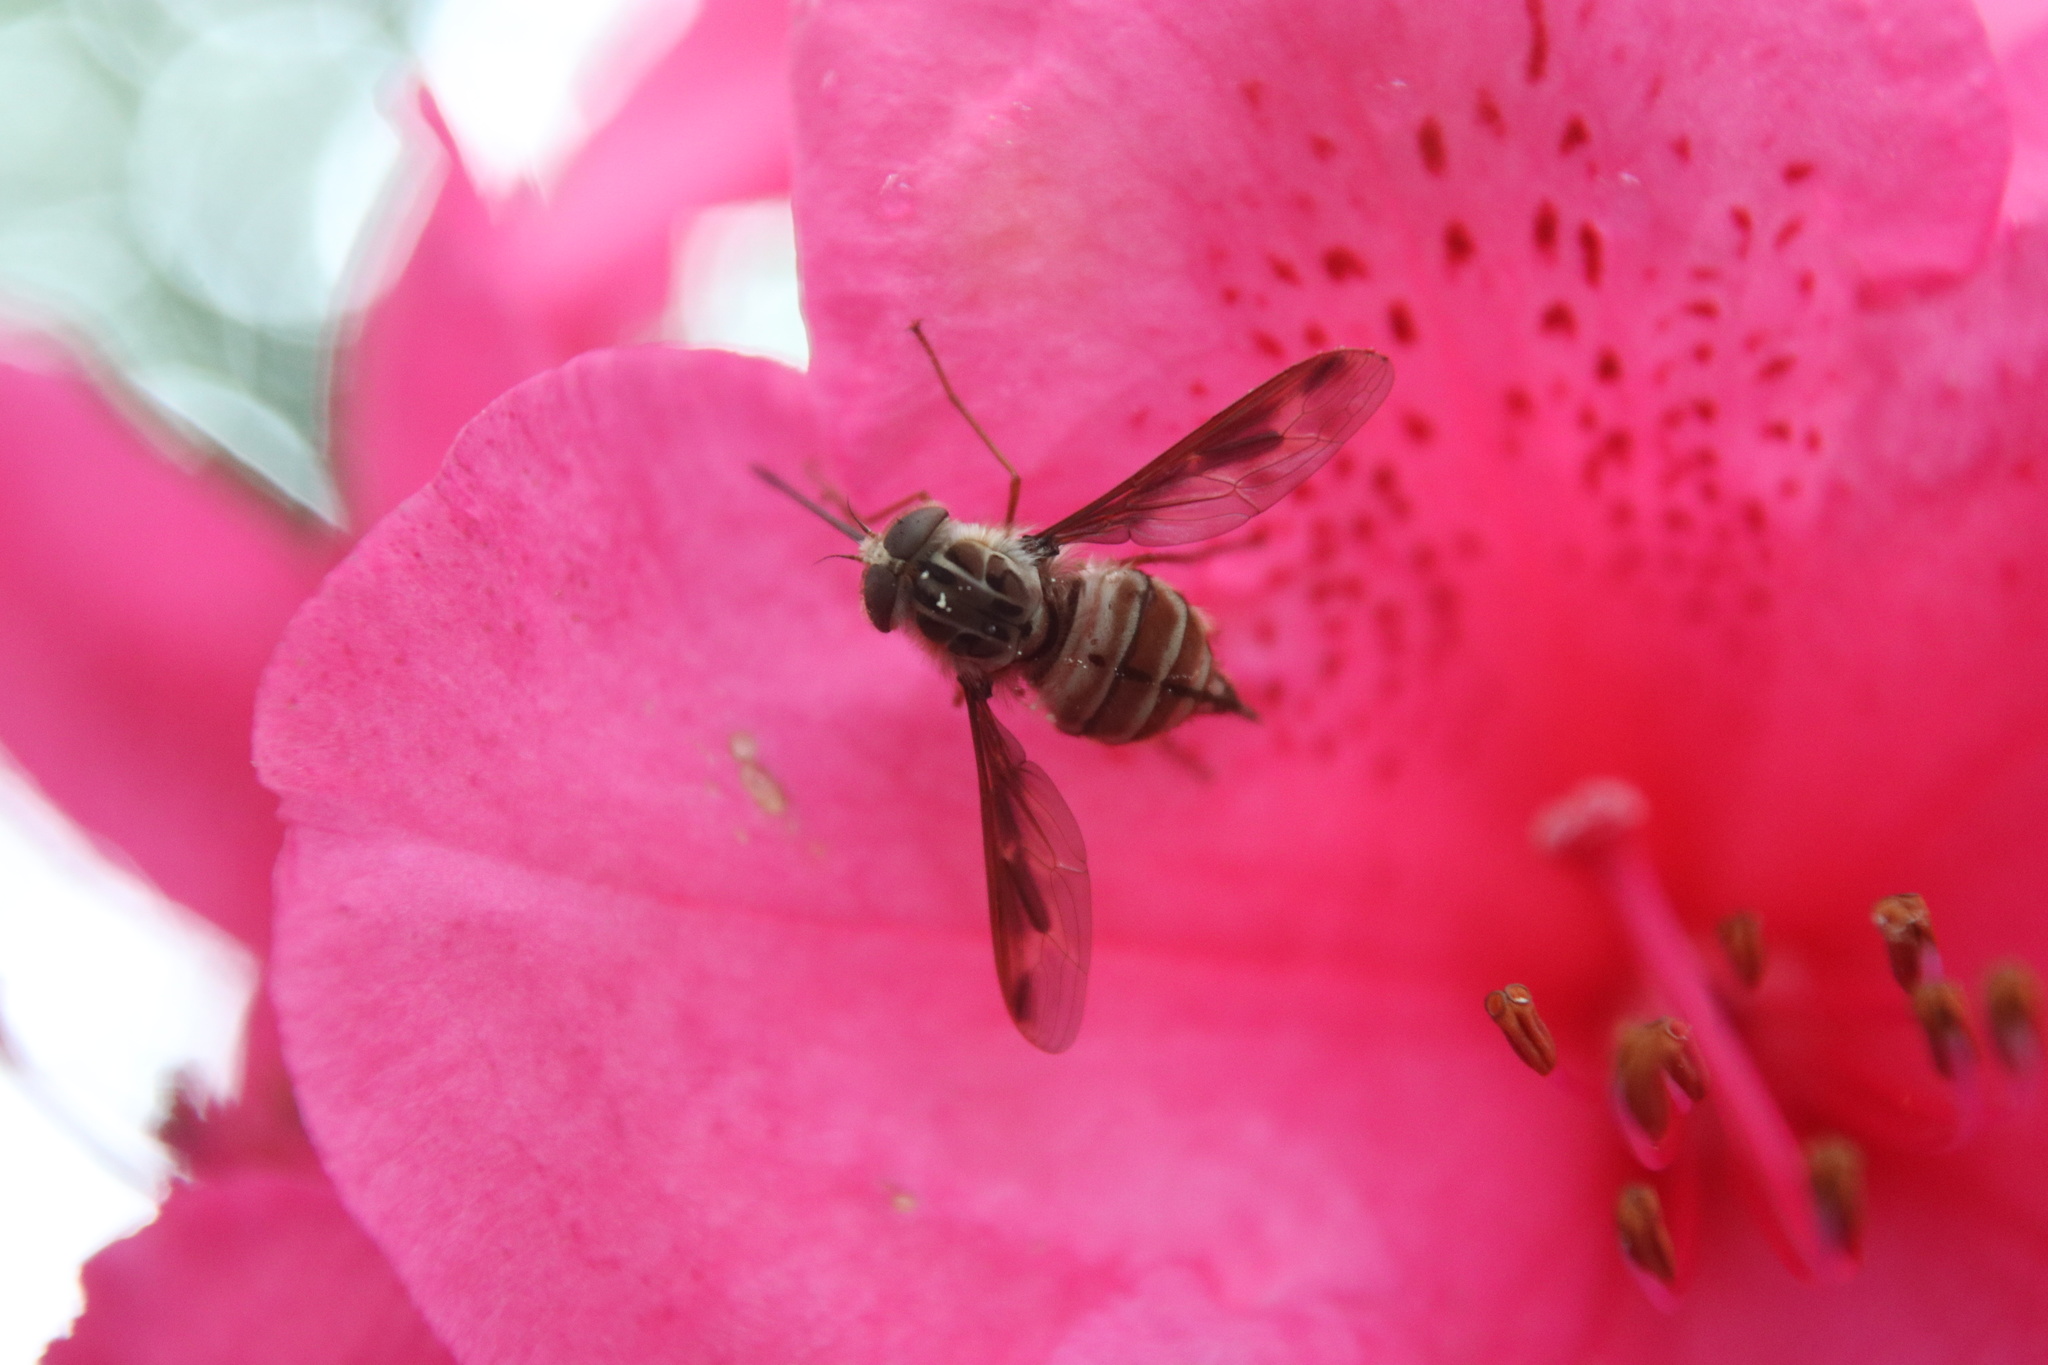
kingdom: Animalia
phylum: Arthropoda
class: Insecta
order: Diptera
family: Nemestrinidae
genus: Trichophthalma
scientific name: Trichophthalma nubipennis
